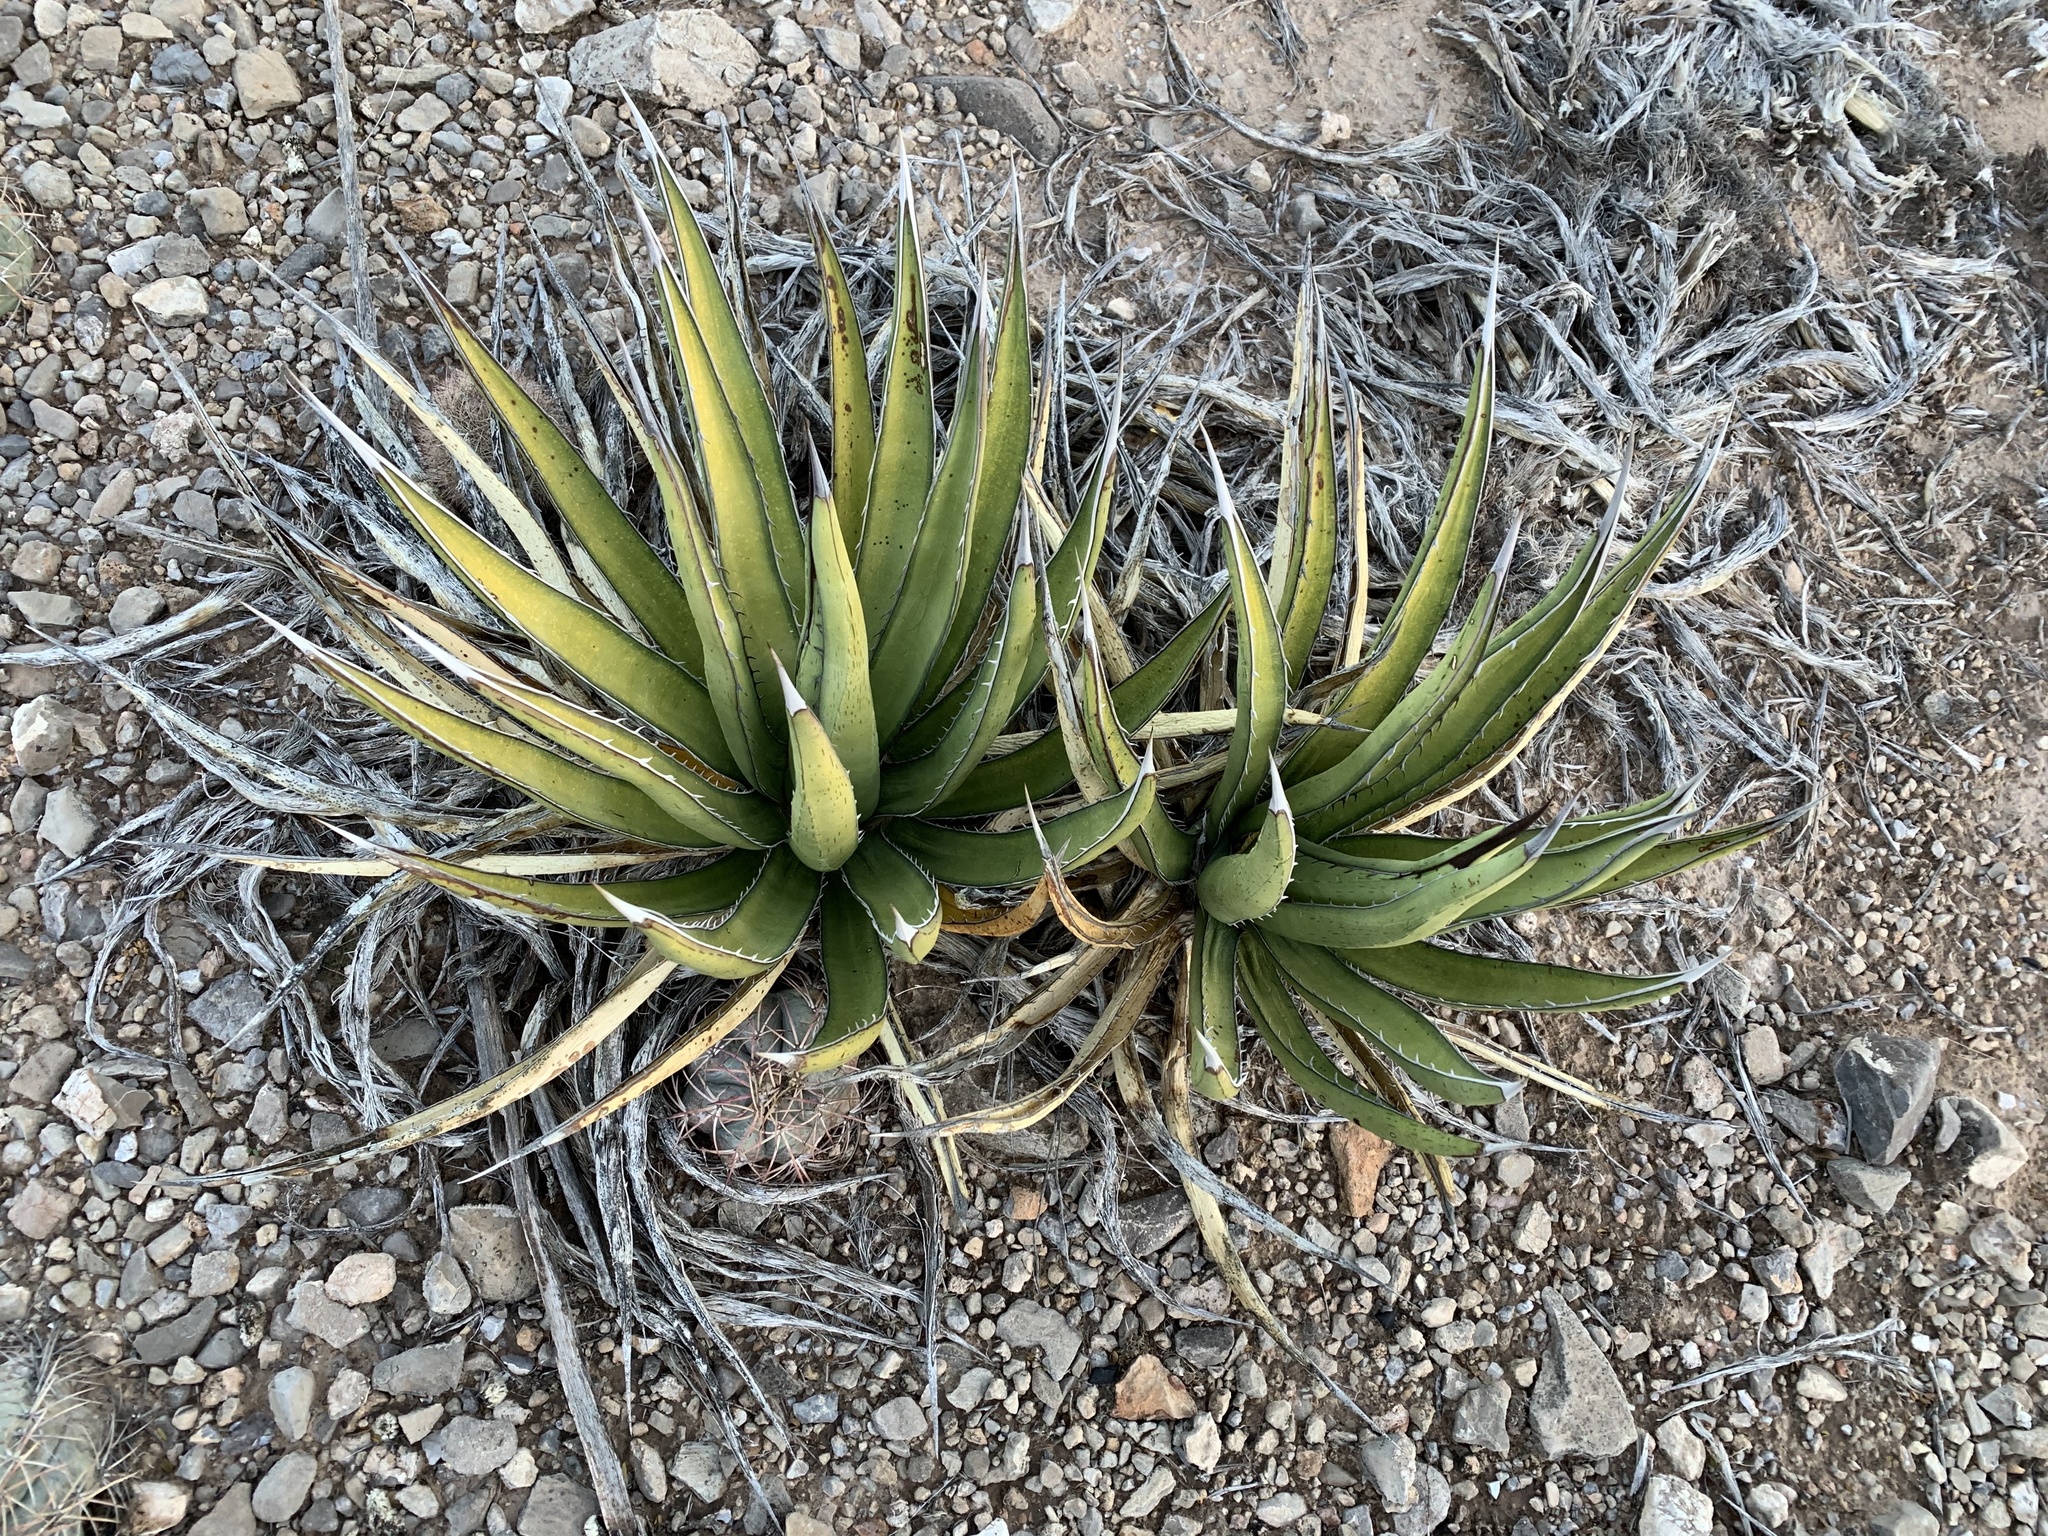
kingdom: Plantae
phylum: Tracheophyta
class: Liliopsida
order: Asparagales
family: Asparagaceae
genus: Agave
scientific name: Agave lechuguilla
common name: Lecheguilla agave
